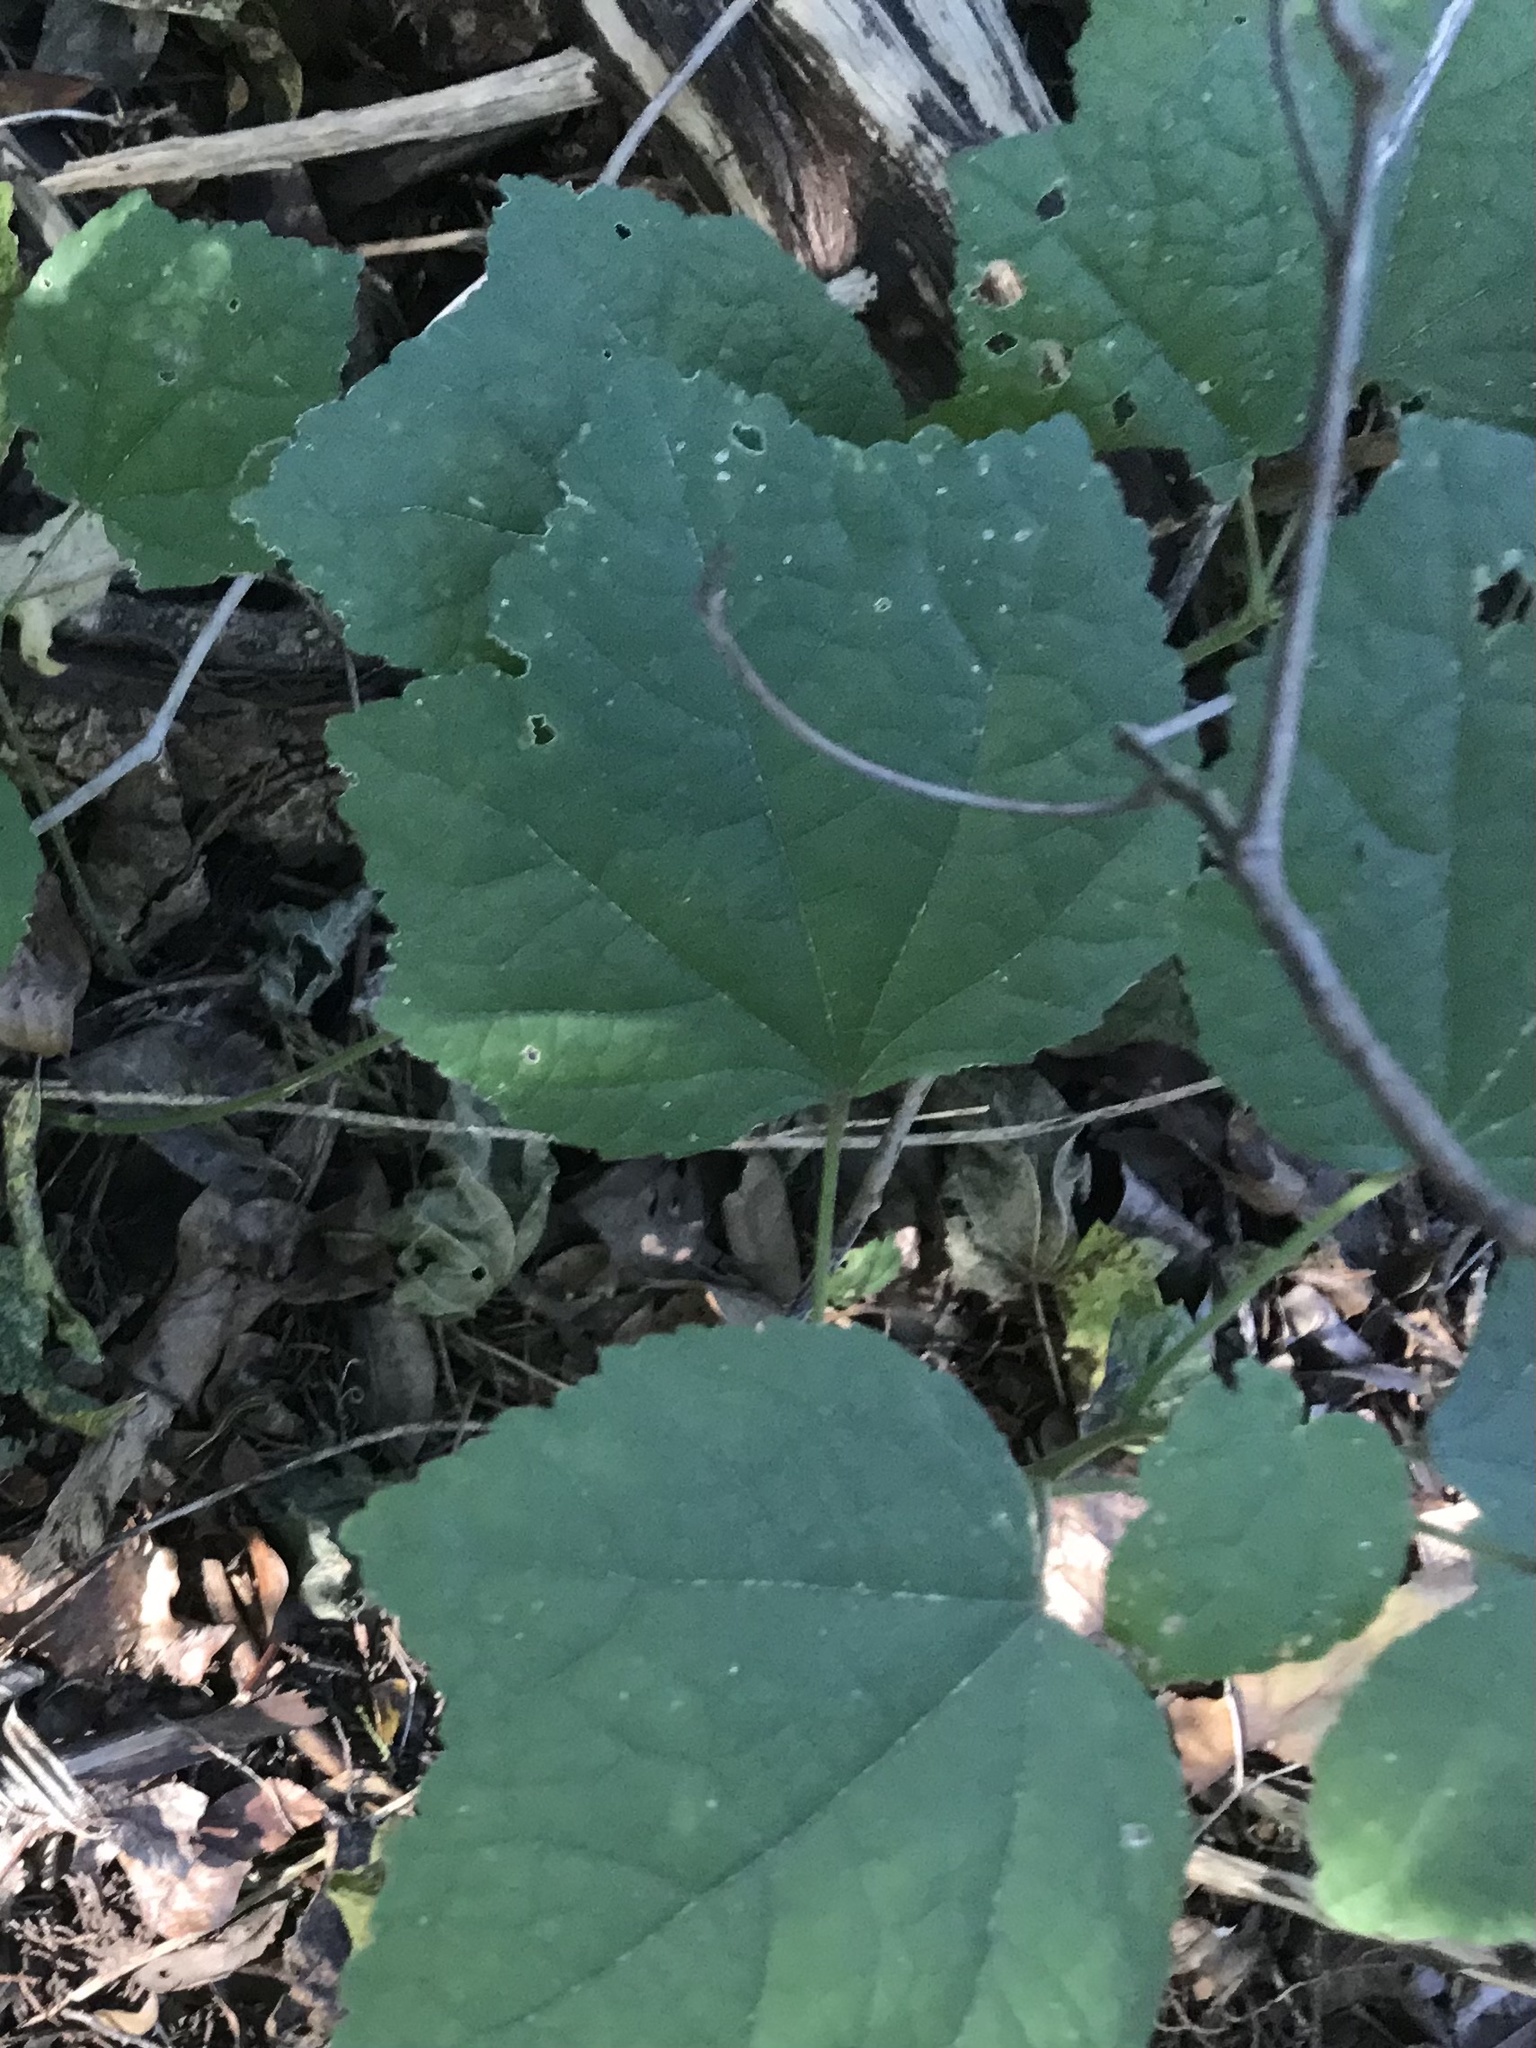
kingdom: Plantae
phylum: Tracheophyta
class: Magnoliopsida
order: Malvales
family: Malvaceae
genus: Malvaviscus
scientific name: Malvaviscus arboreus
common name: Wax mallow
